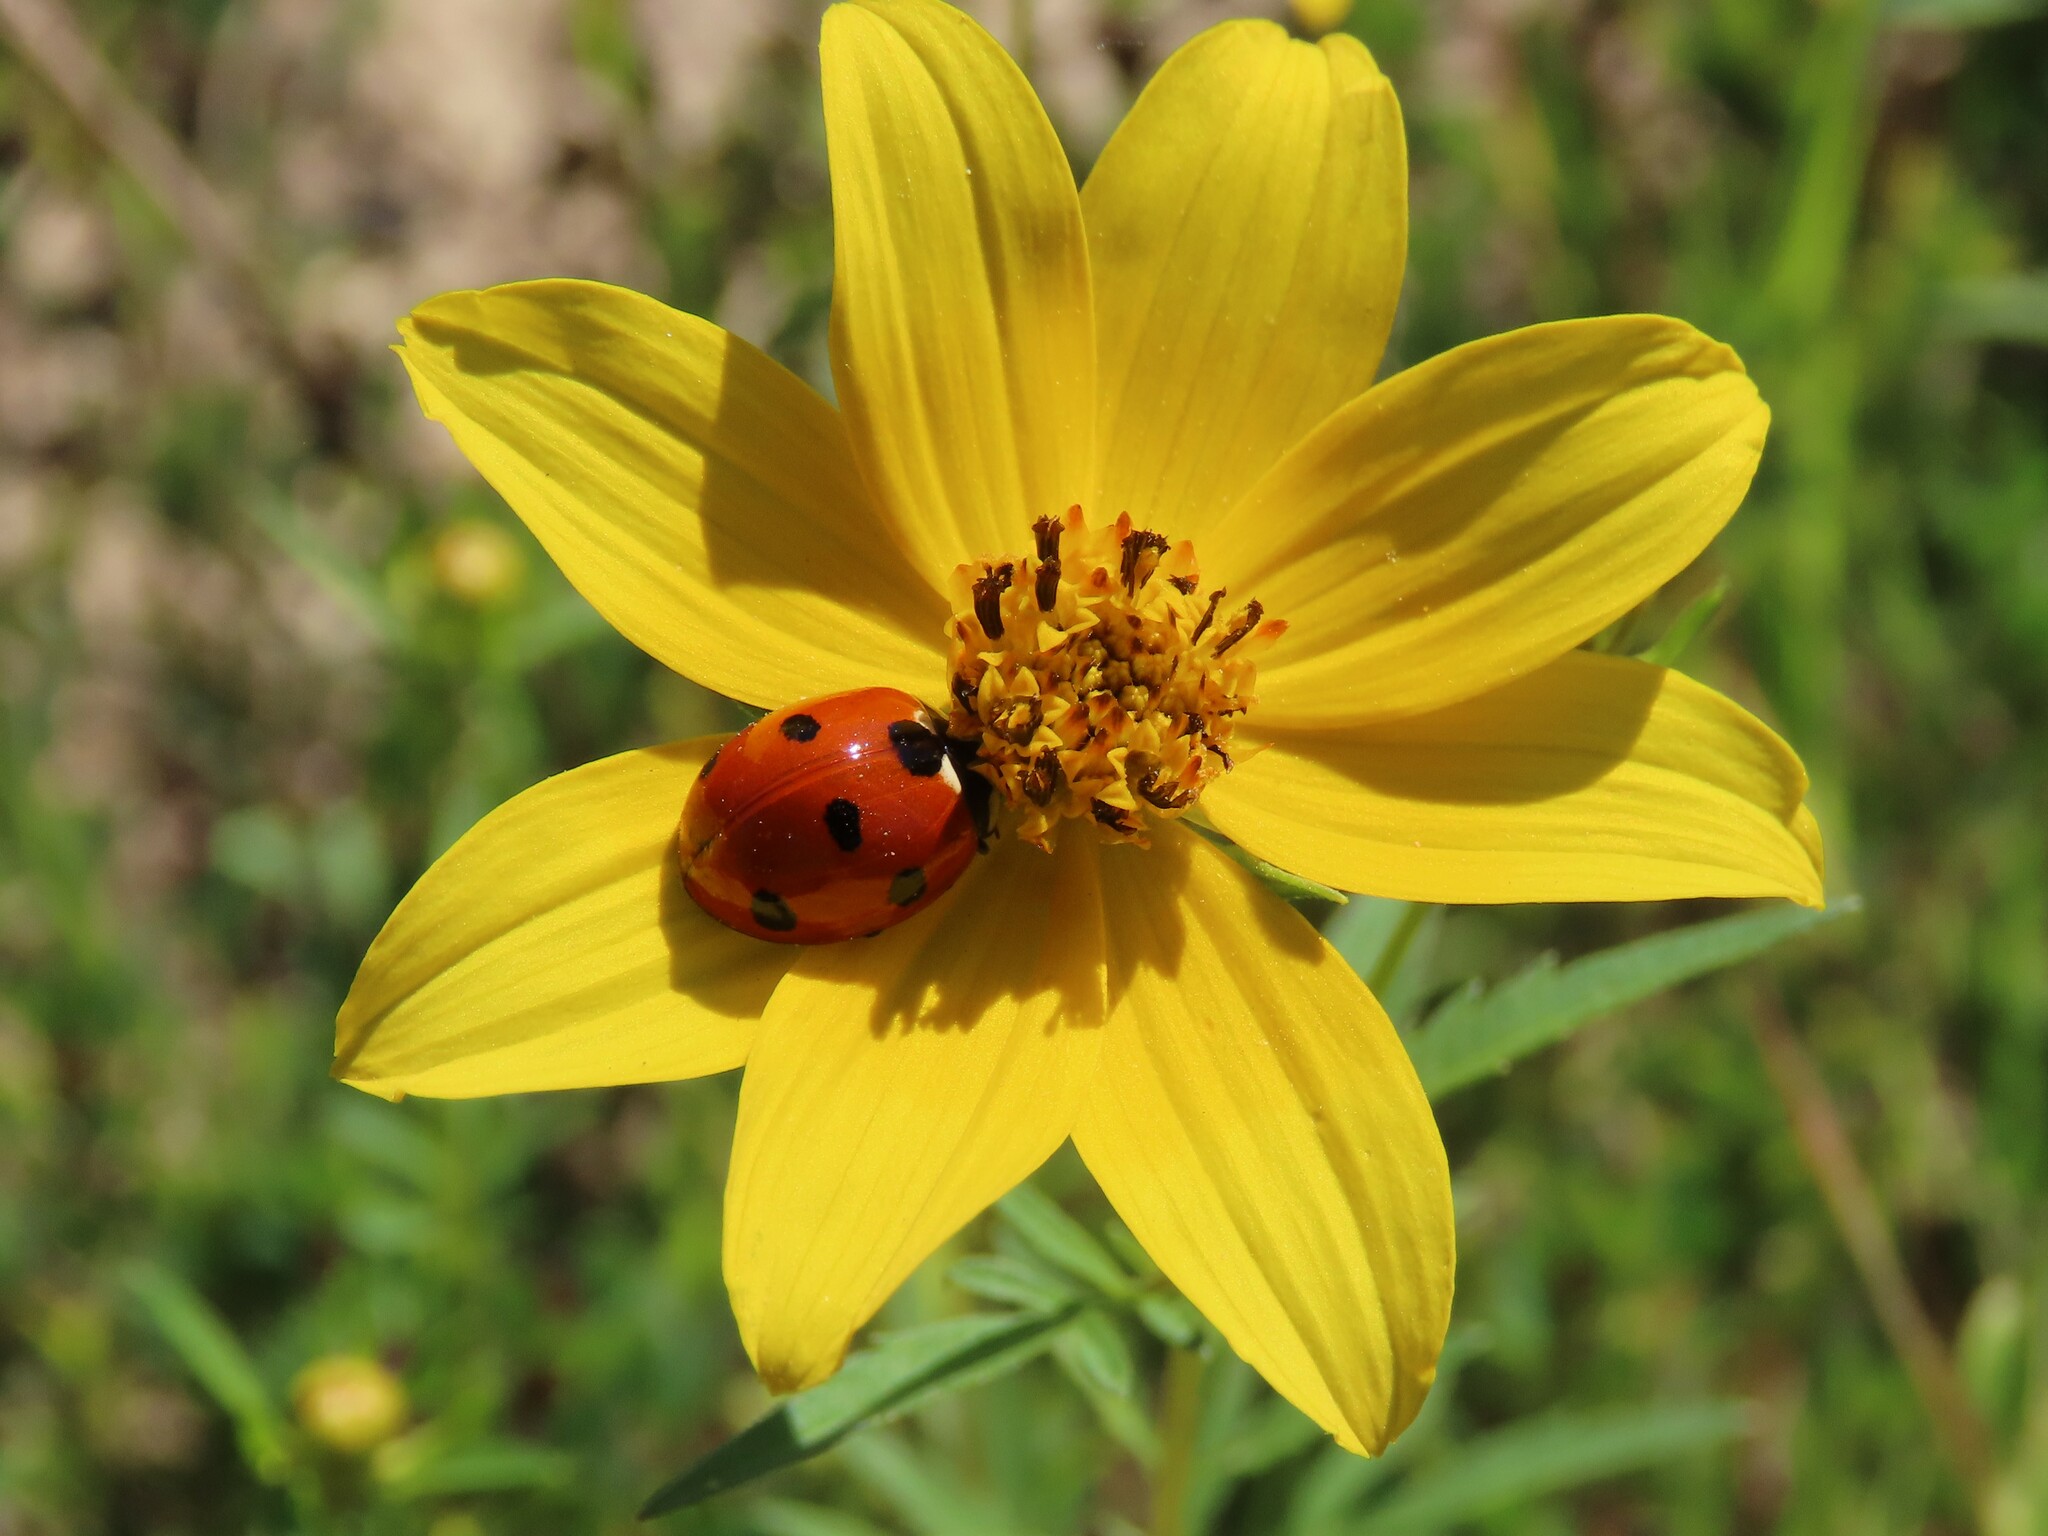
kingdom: Animalia
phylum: Arthropoda
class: Insecta
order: Coleoptera
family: Coccinellidae
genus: Coccinella
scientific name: Coccinella septempunctata
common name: Sevenspotted lady beetle
